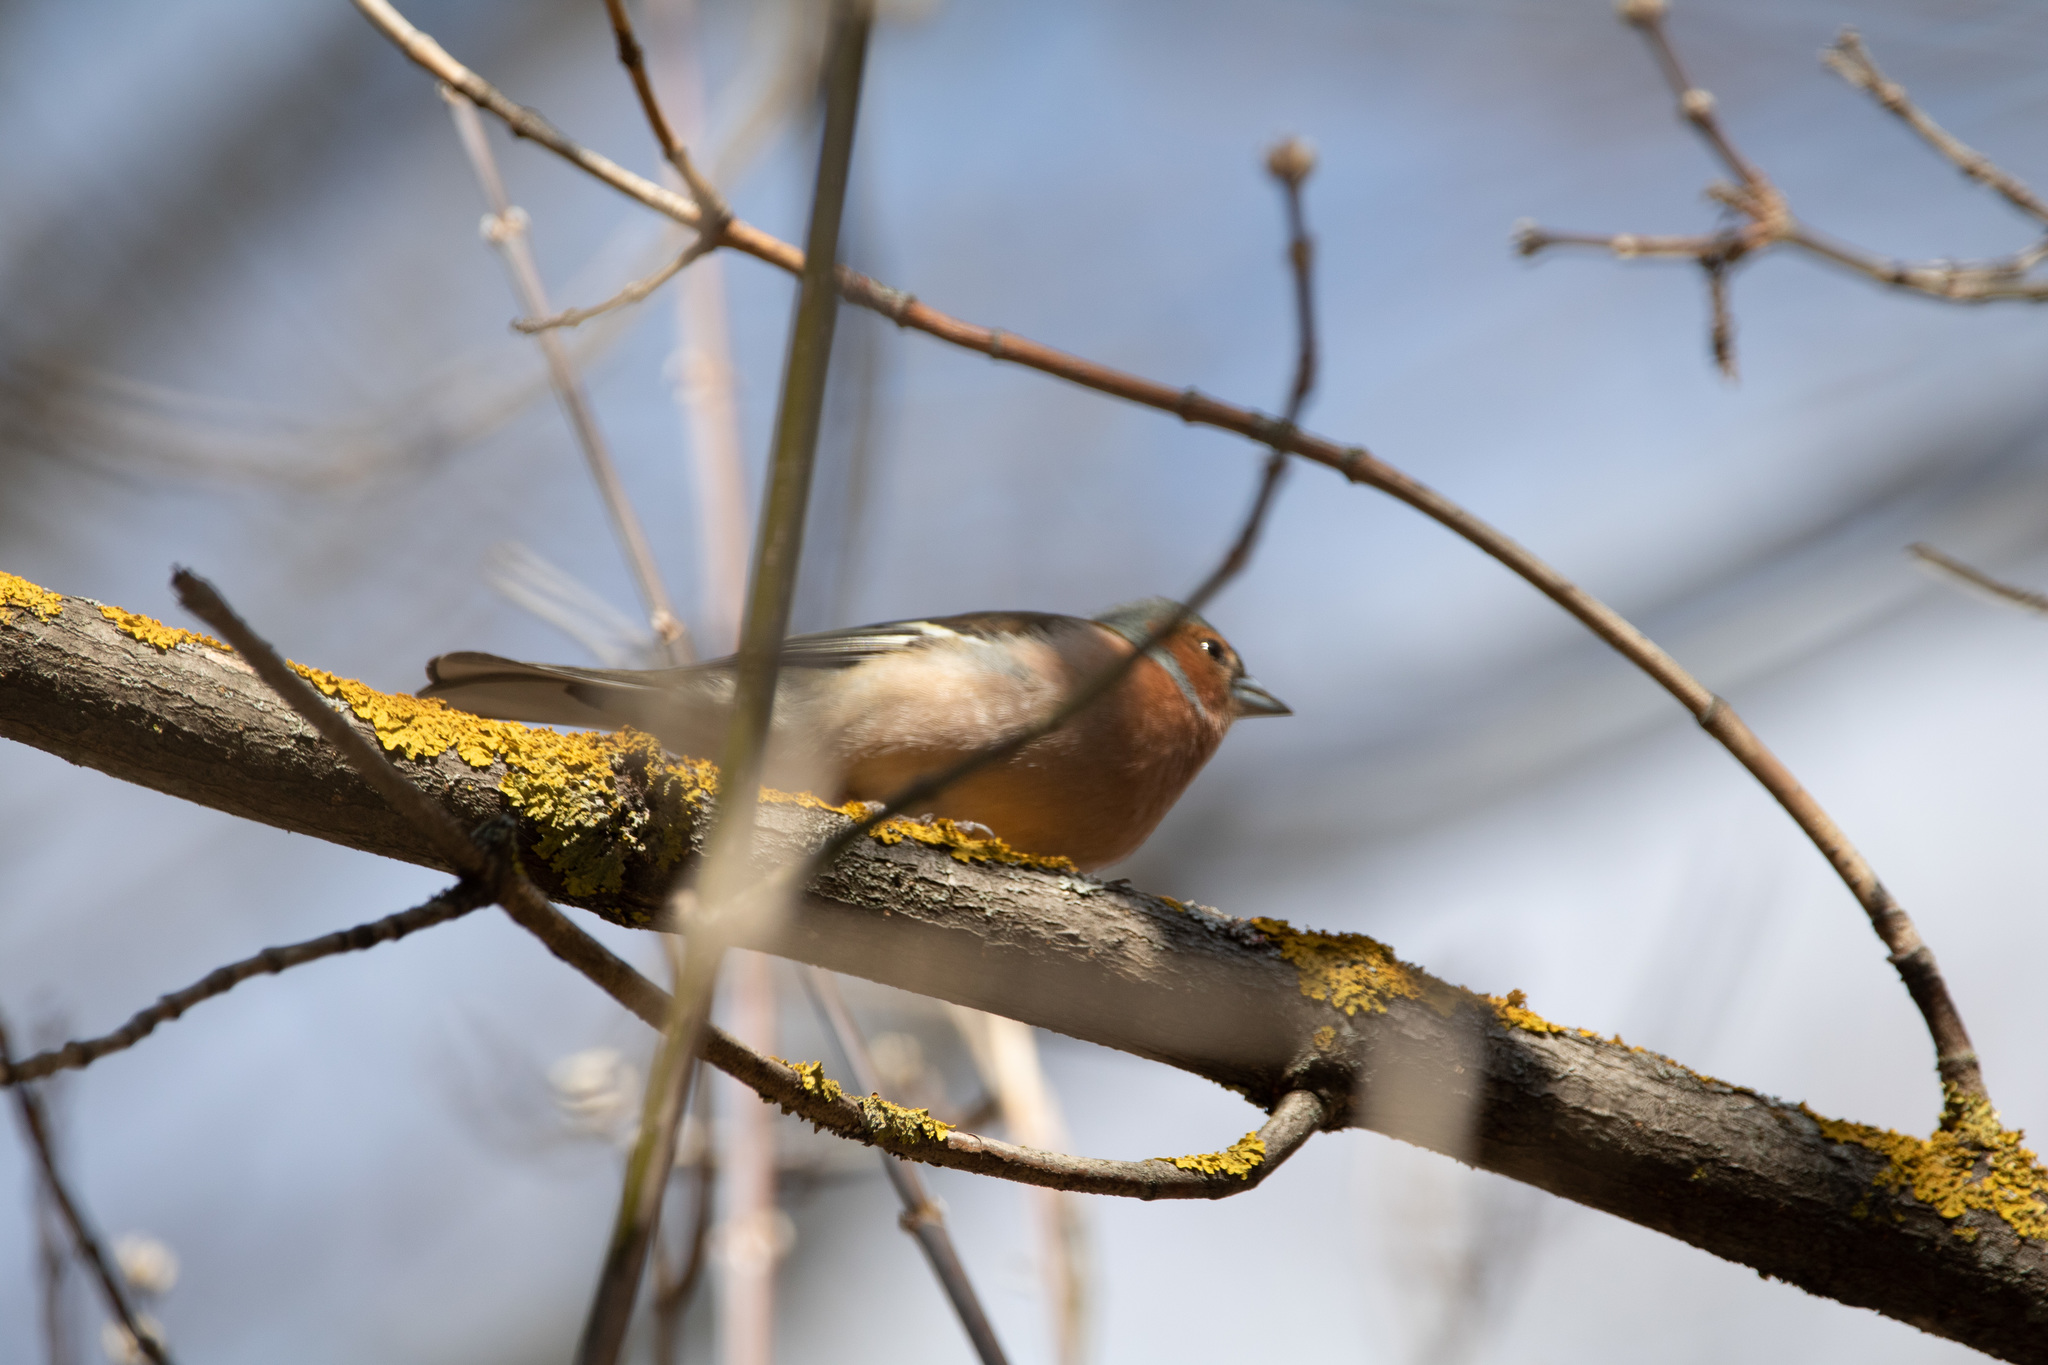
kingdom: Animalia
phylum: Chordata
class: Aves
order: Passeriformes
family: Fringillidae
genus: Fringilla
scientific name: Fringilla coelebs
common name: Common chaffinch
